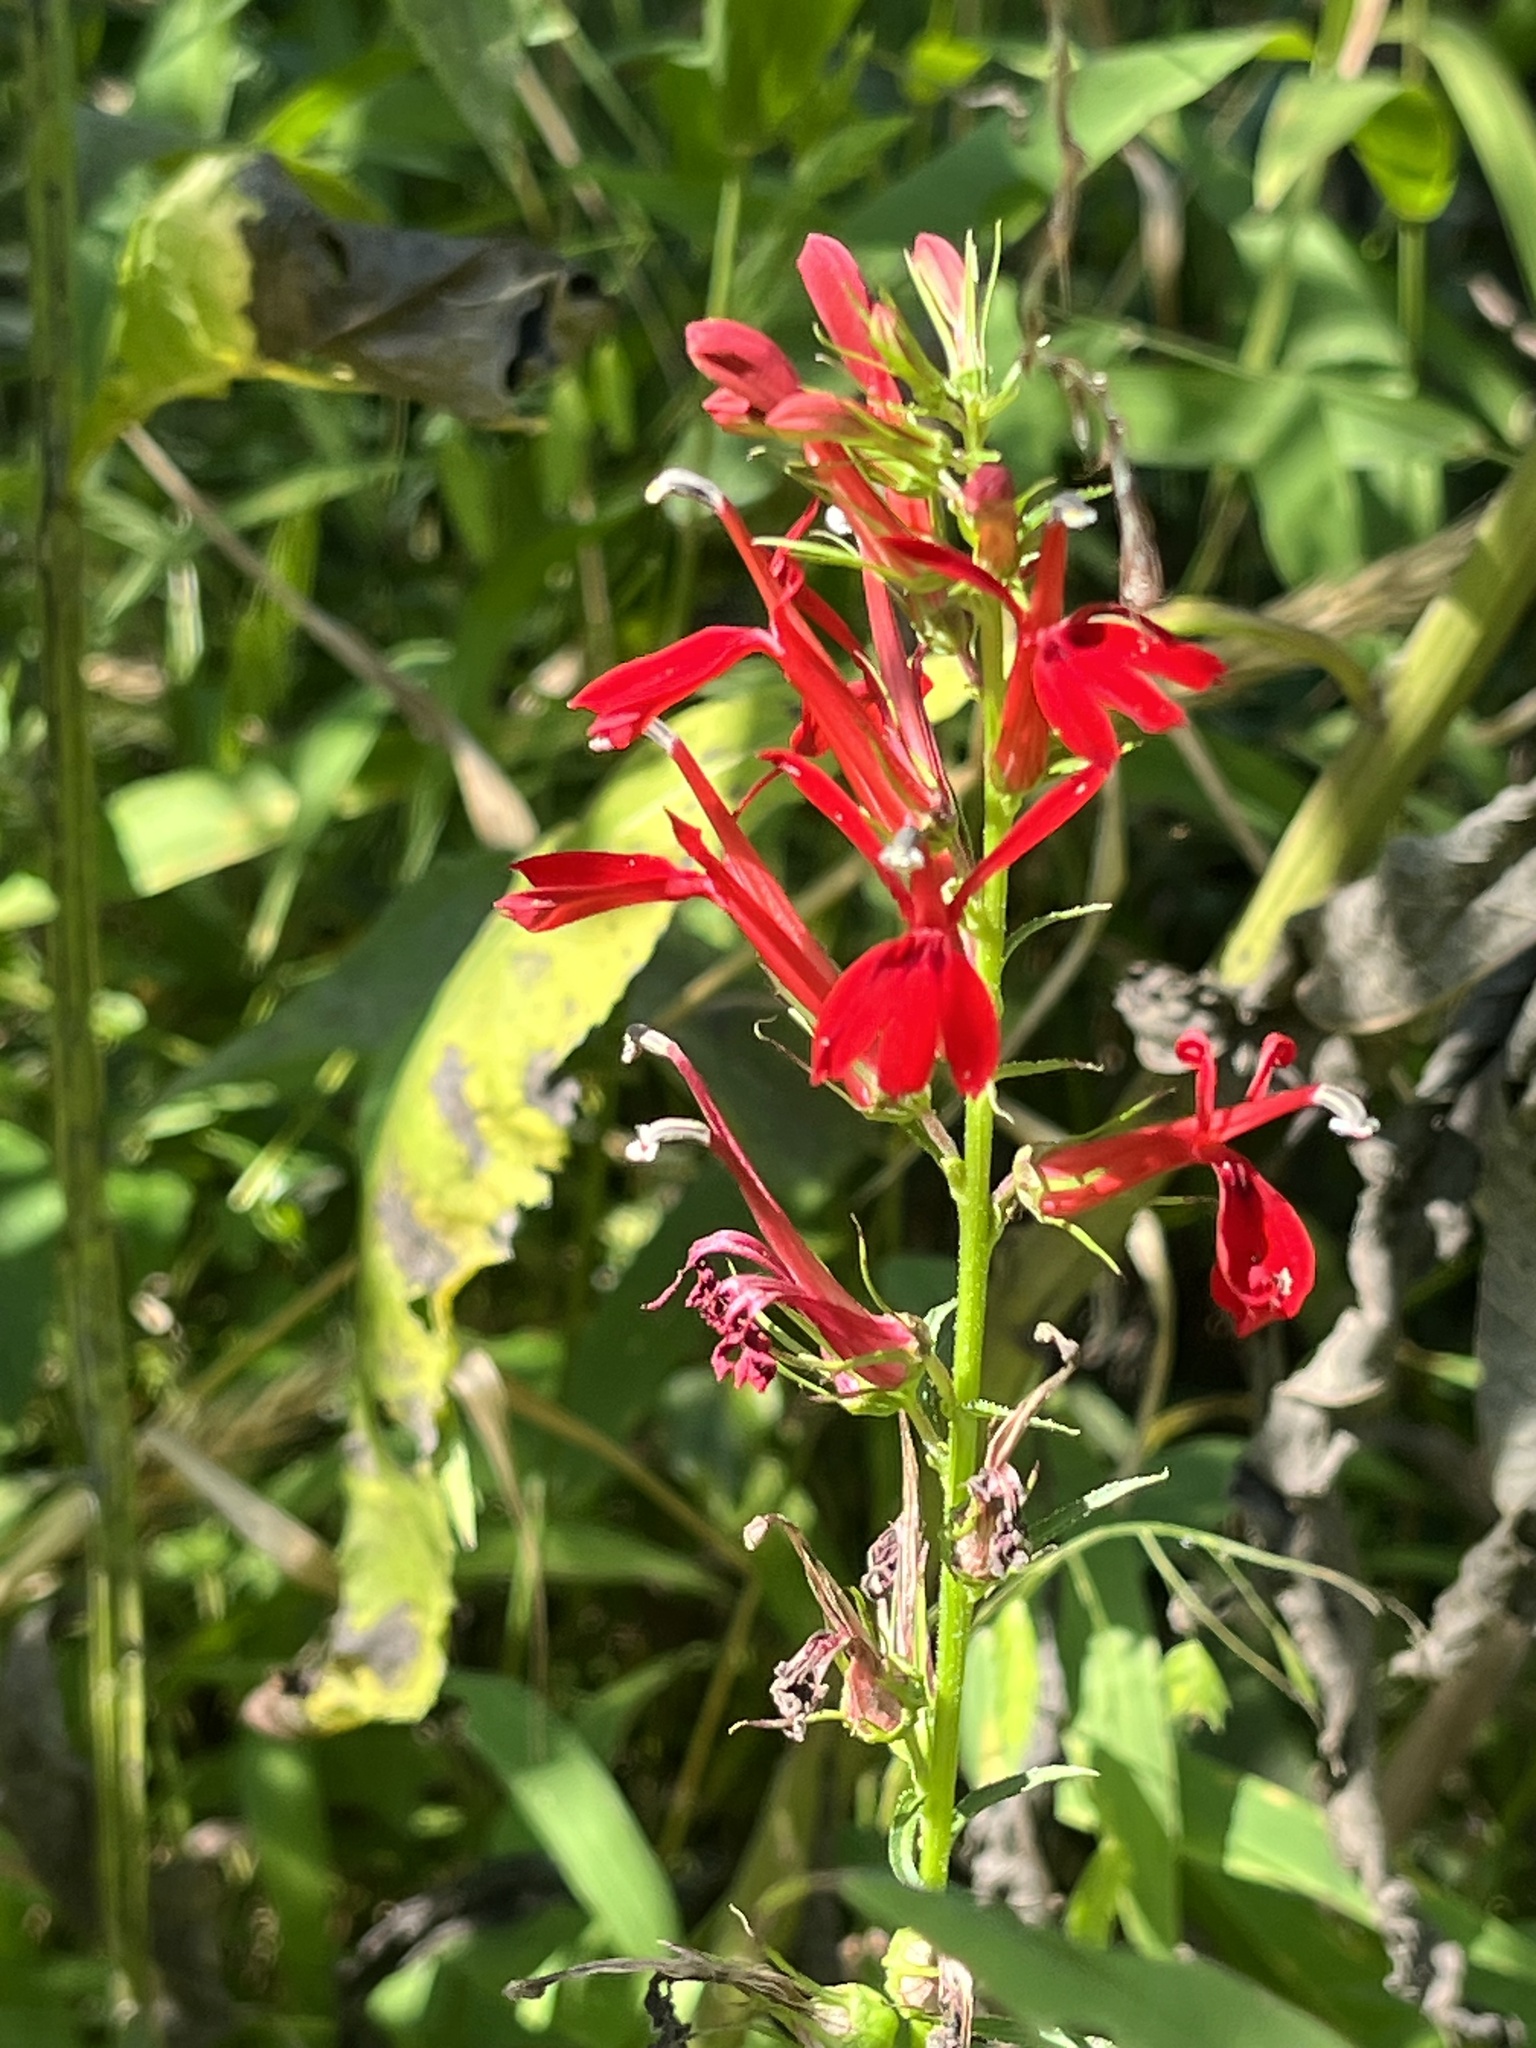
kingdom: Plantae
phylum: Tracheophyta
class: Magnoliopsida
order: Asterales
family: Campanulaceae
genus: Lobelia
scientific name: Lobelia cardinalis
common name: Cardinal flower
